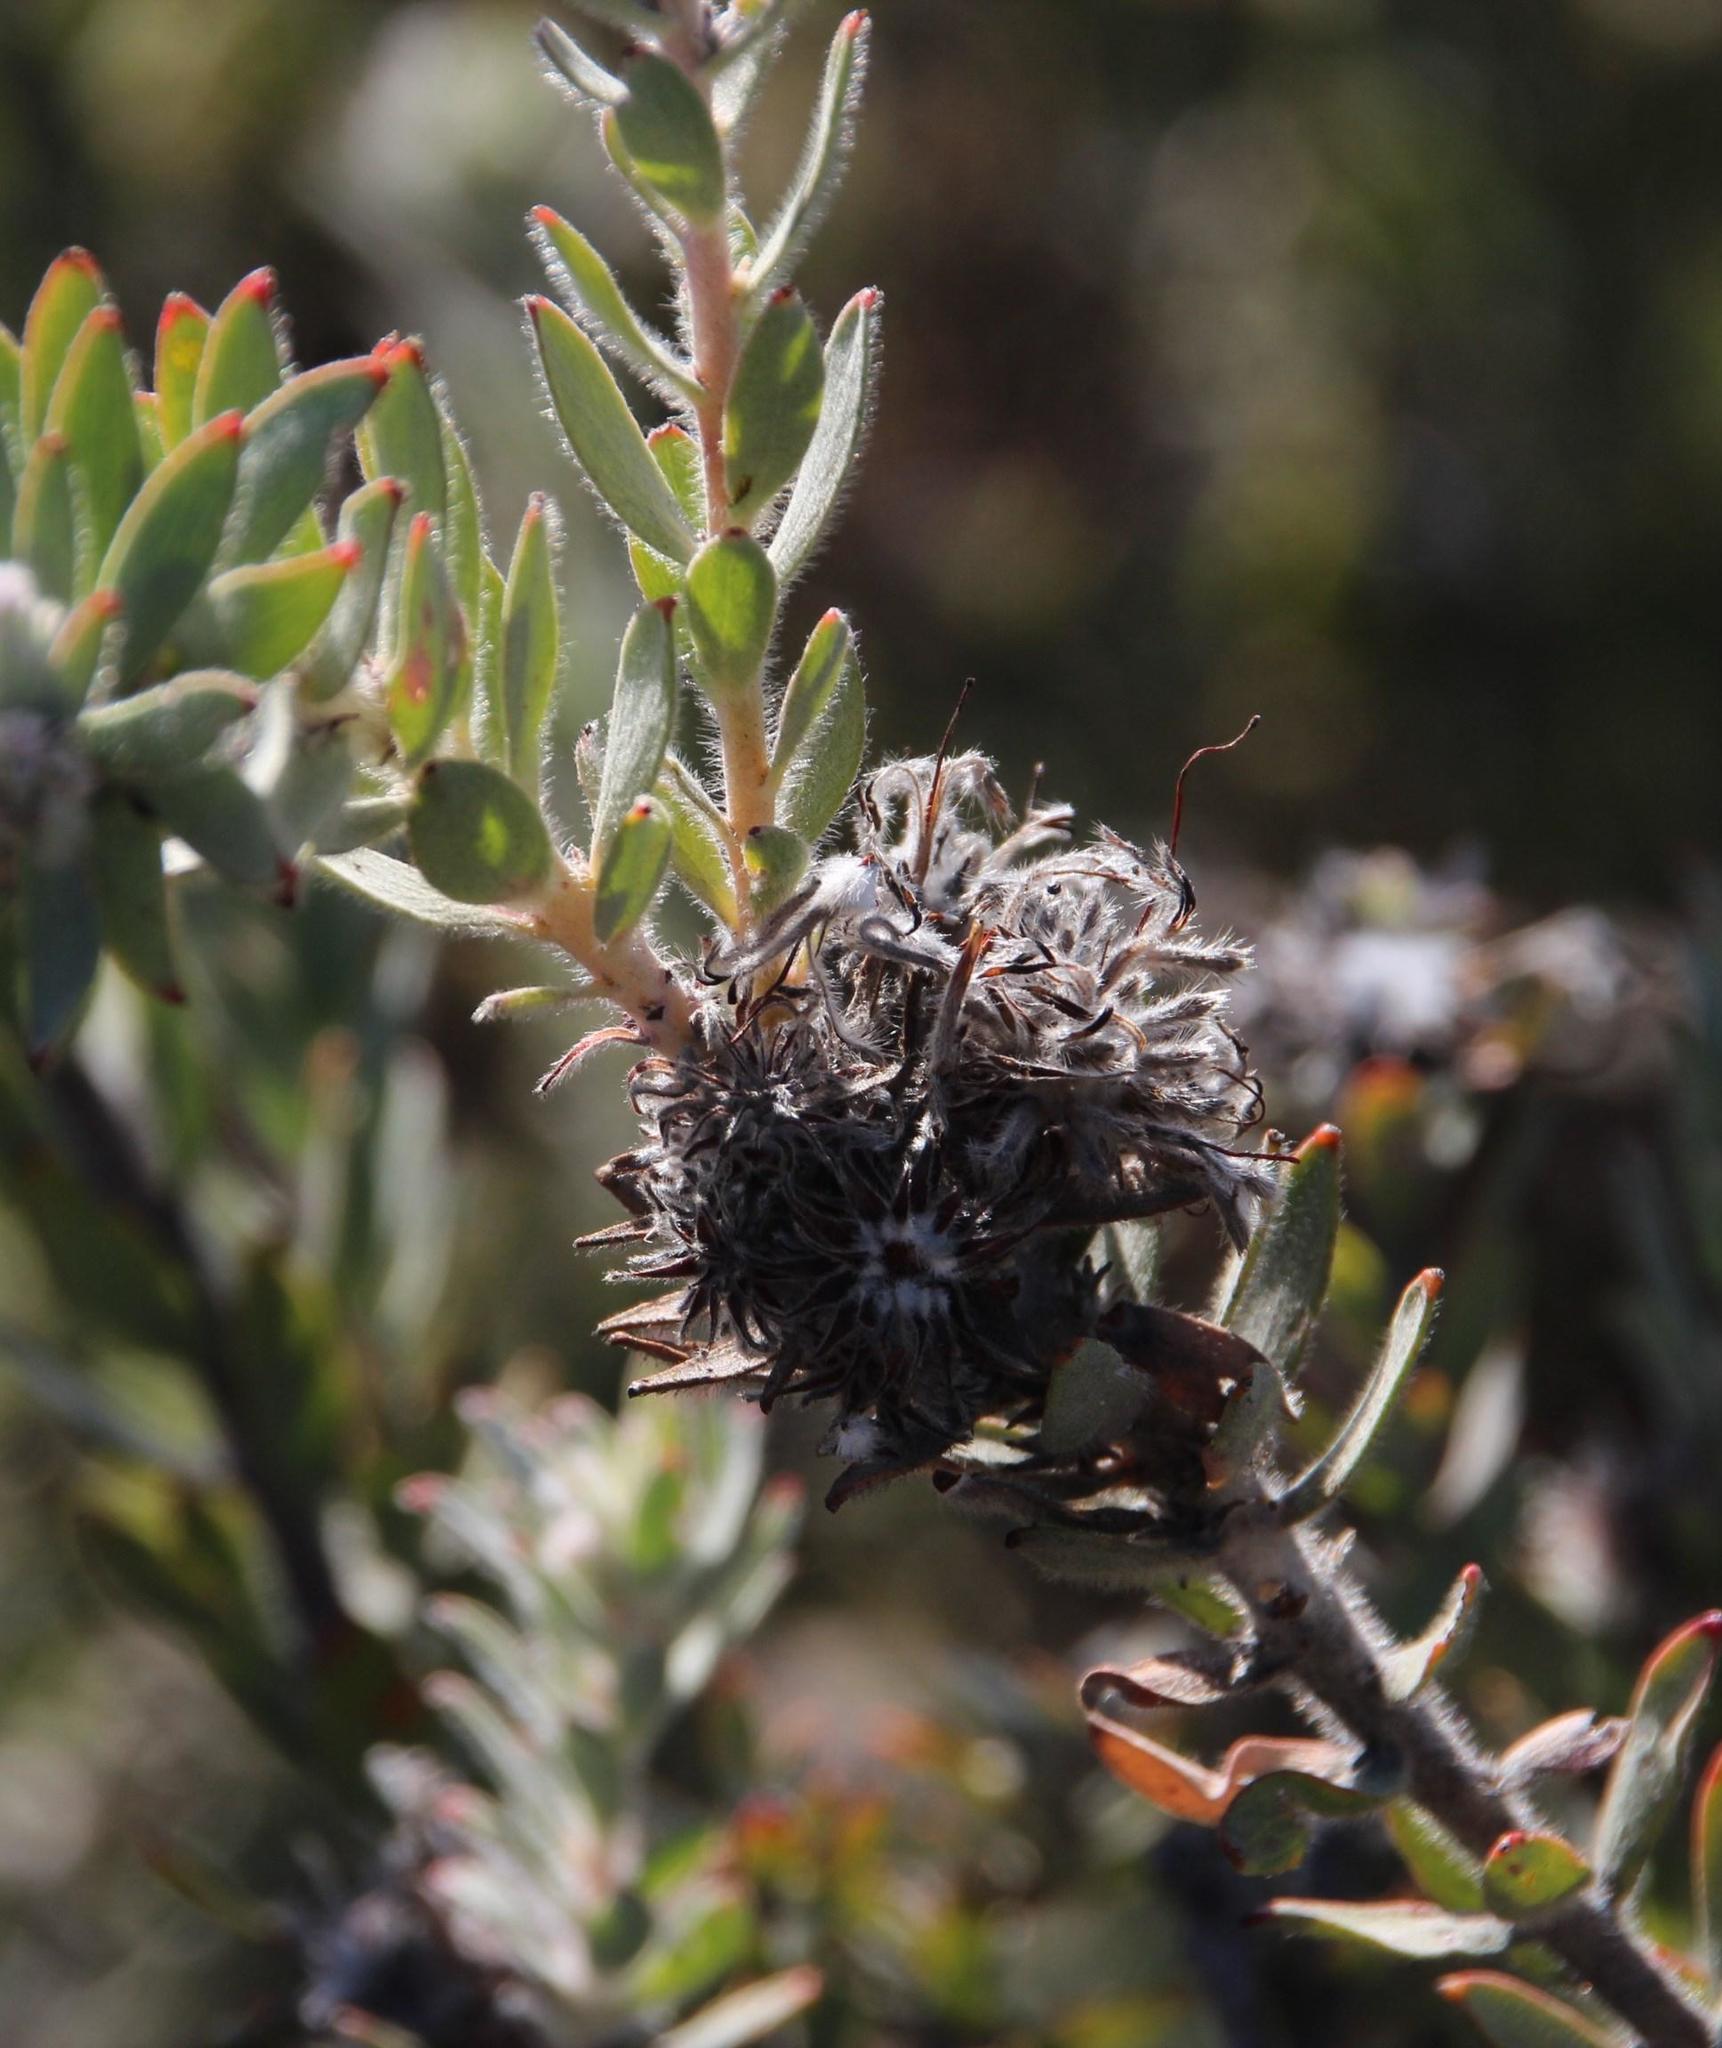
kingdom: Plantae
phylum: Tracheophyta
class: Magnoliopsida
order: Proteales
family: Proteaceae
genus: Leucospermum
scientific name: Leucospermum calligerum
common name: Arid pincushion
